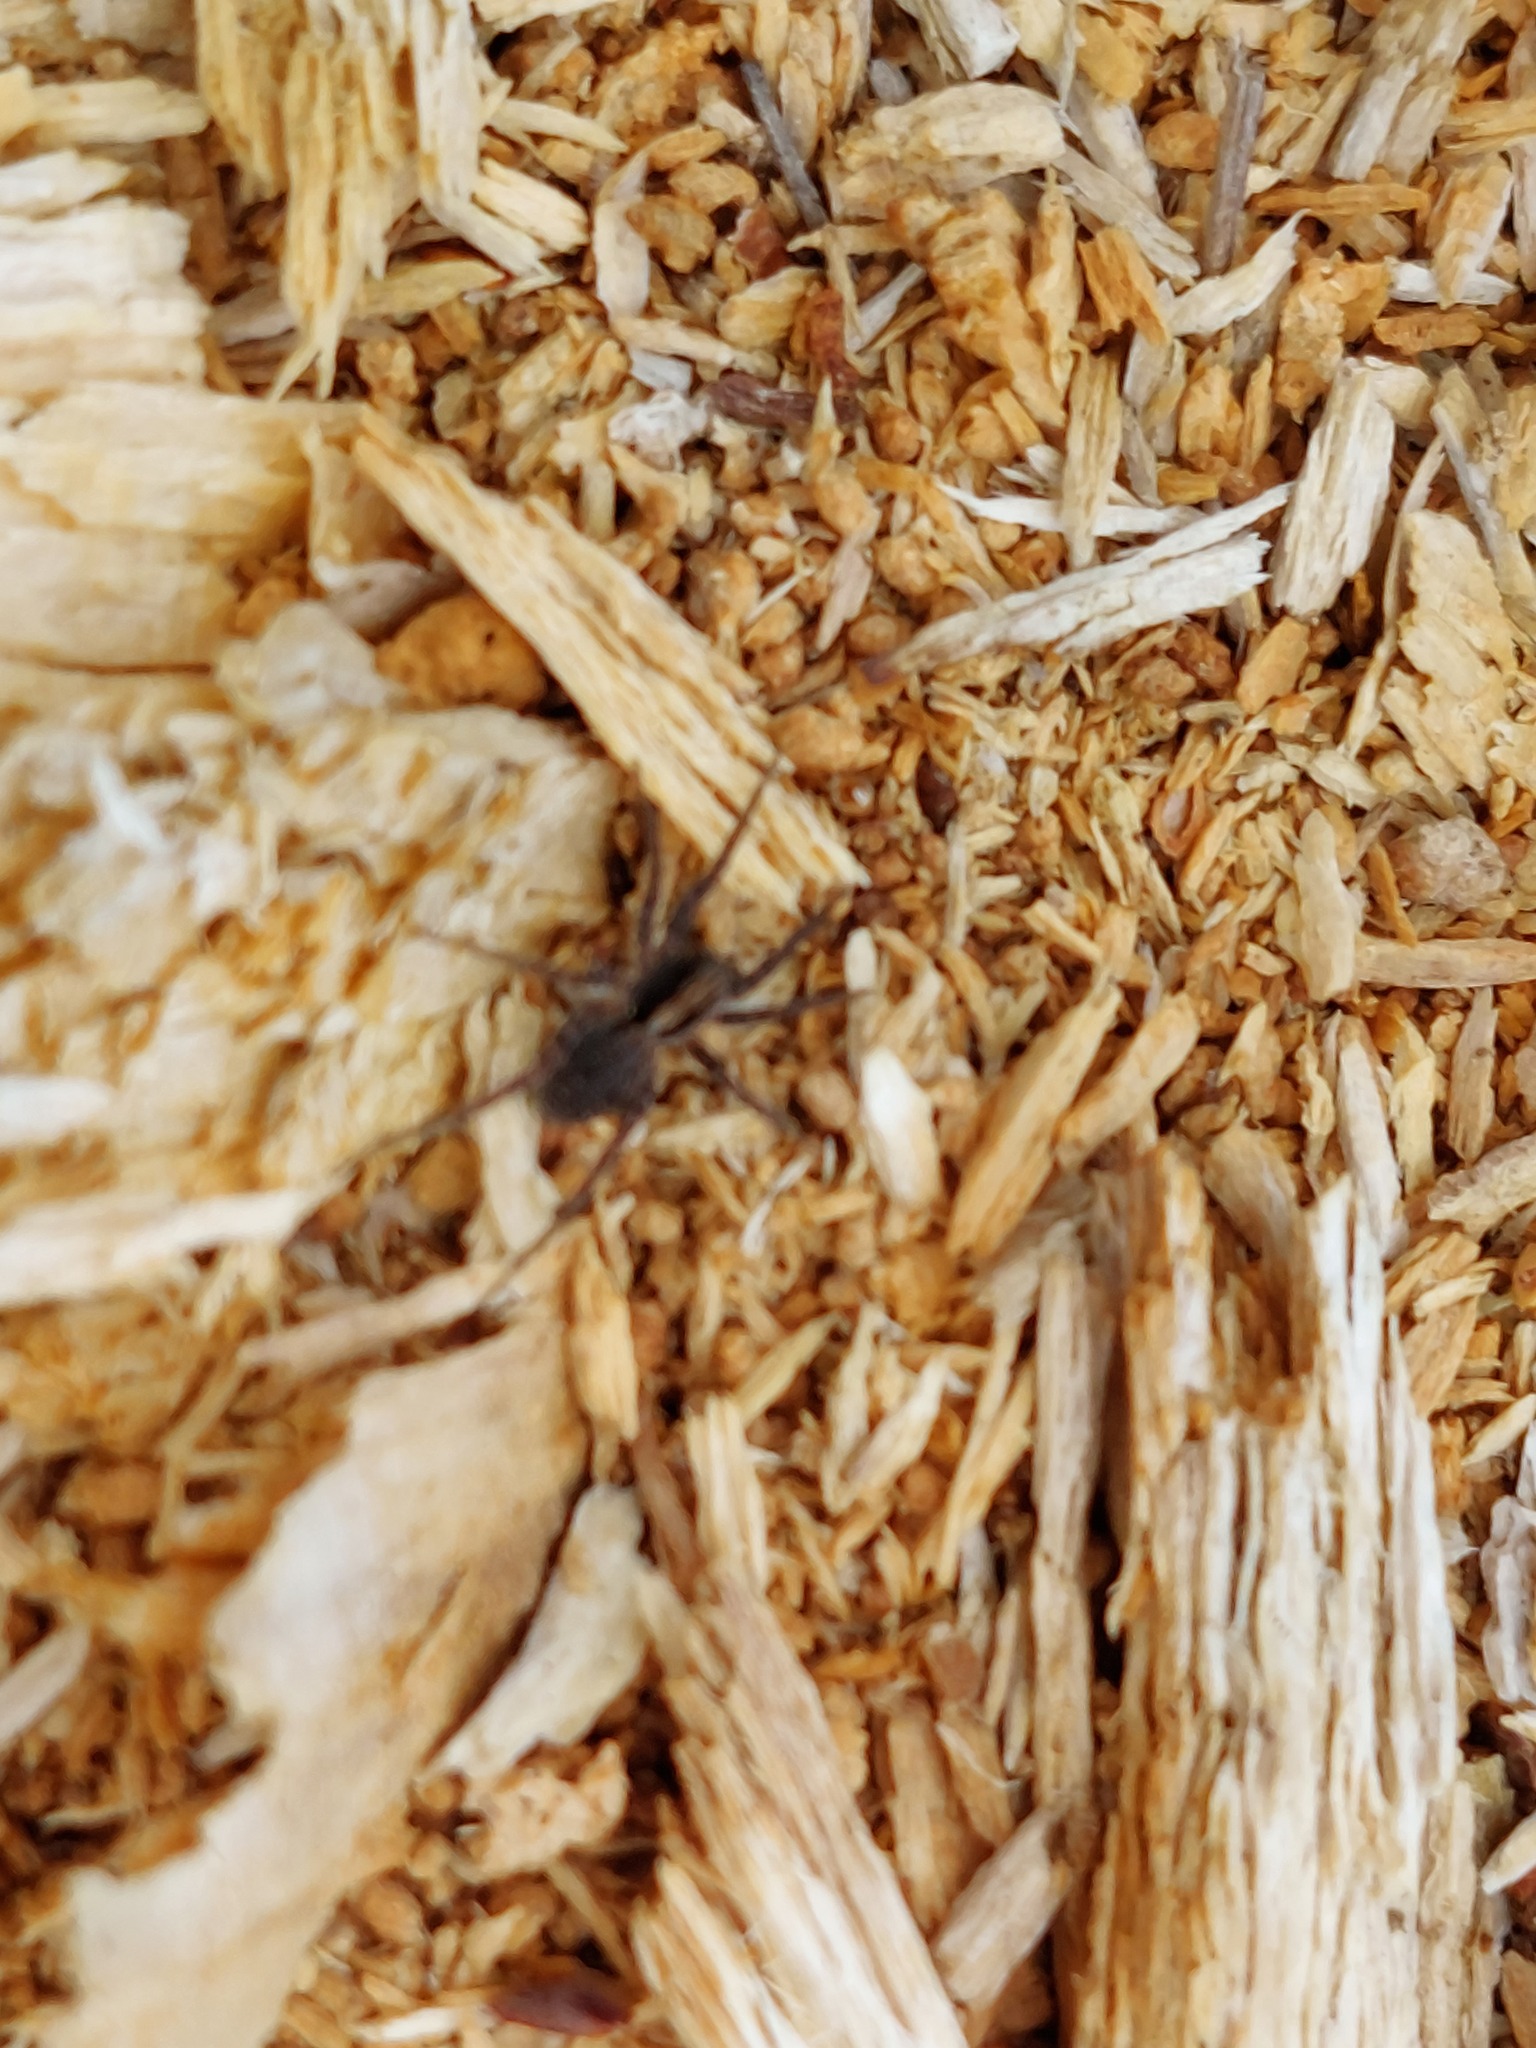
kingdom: Animalia
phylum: Arthropoda
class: Arachnida
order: Araneae
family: Lycosidae
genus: Xerolycosa
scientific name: Xerolycosa nemoralis
